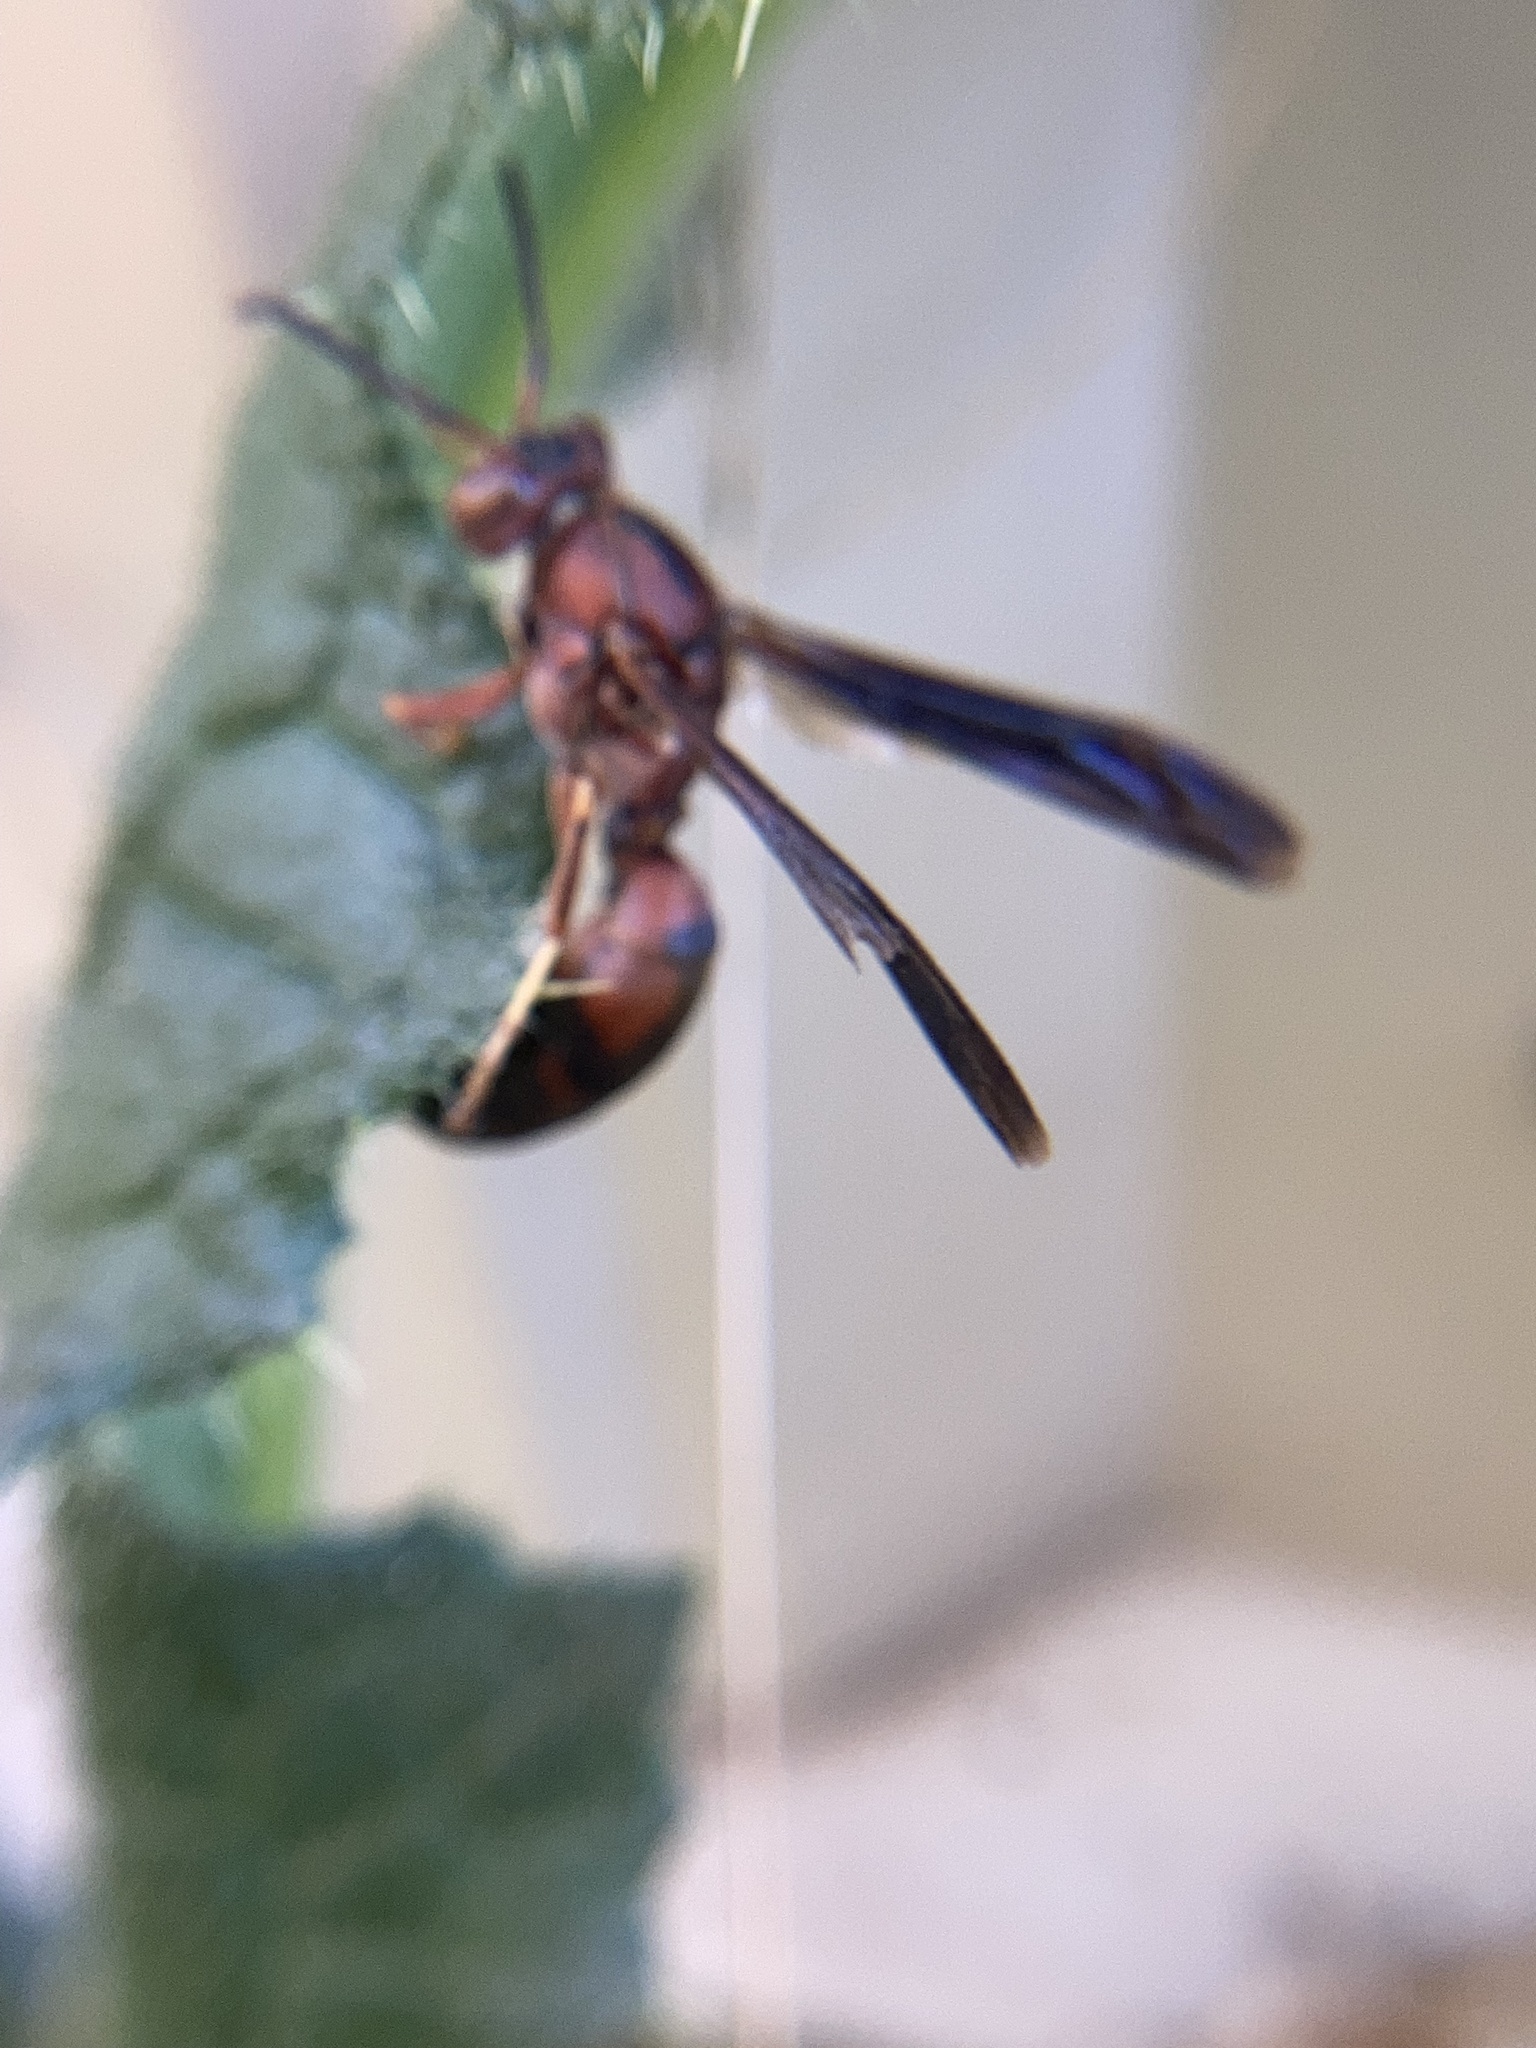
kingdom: Animalia
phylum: Arthropoda
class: Insecta
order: Hymenoptera
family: Eumenidae
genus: Polistes
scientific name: Polistes metricus
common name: Metric paper wasp
